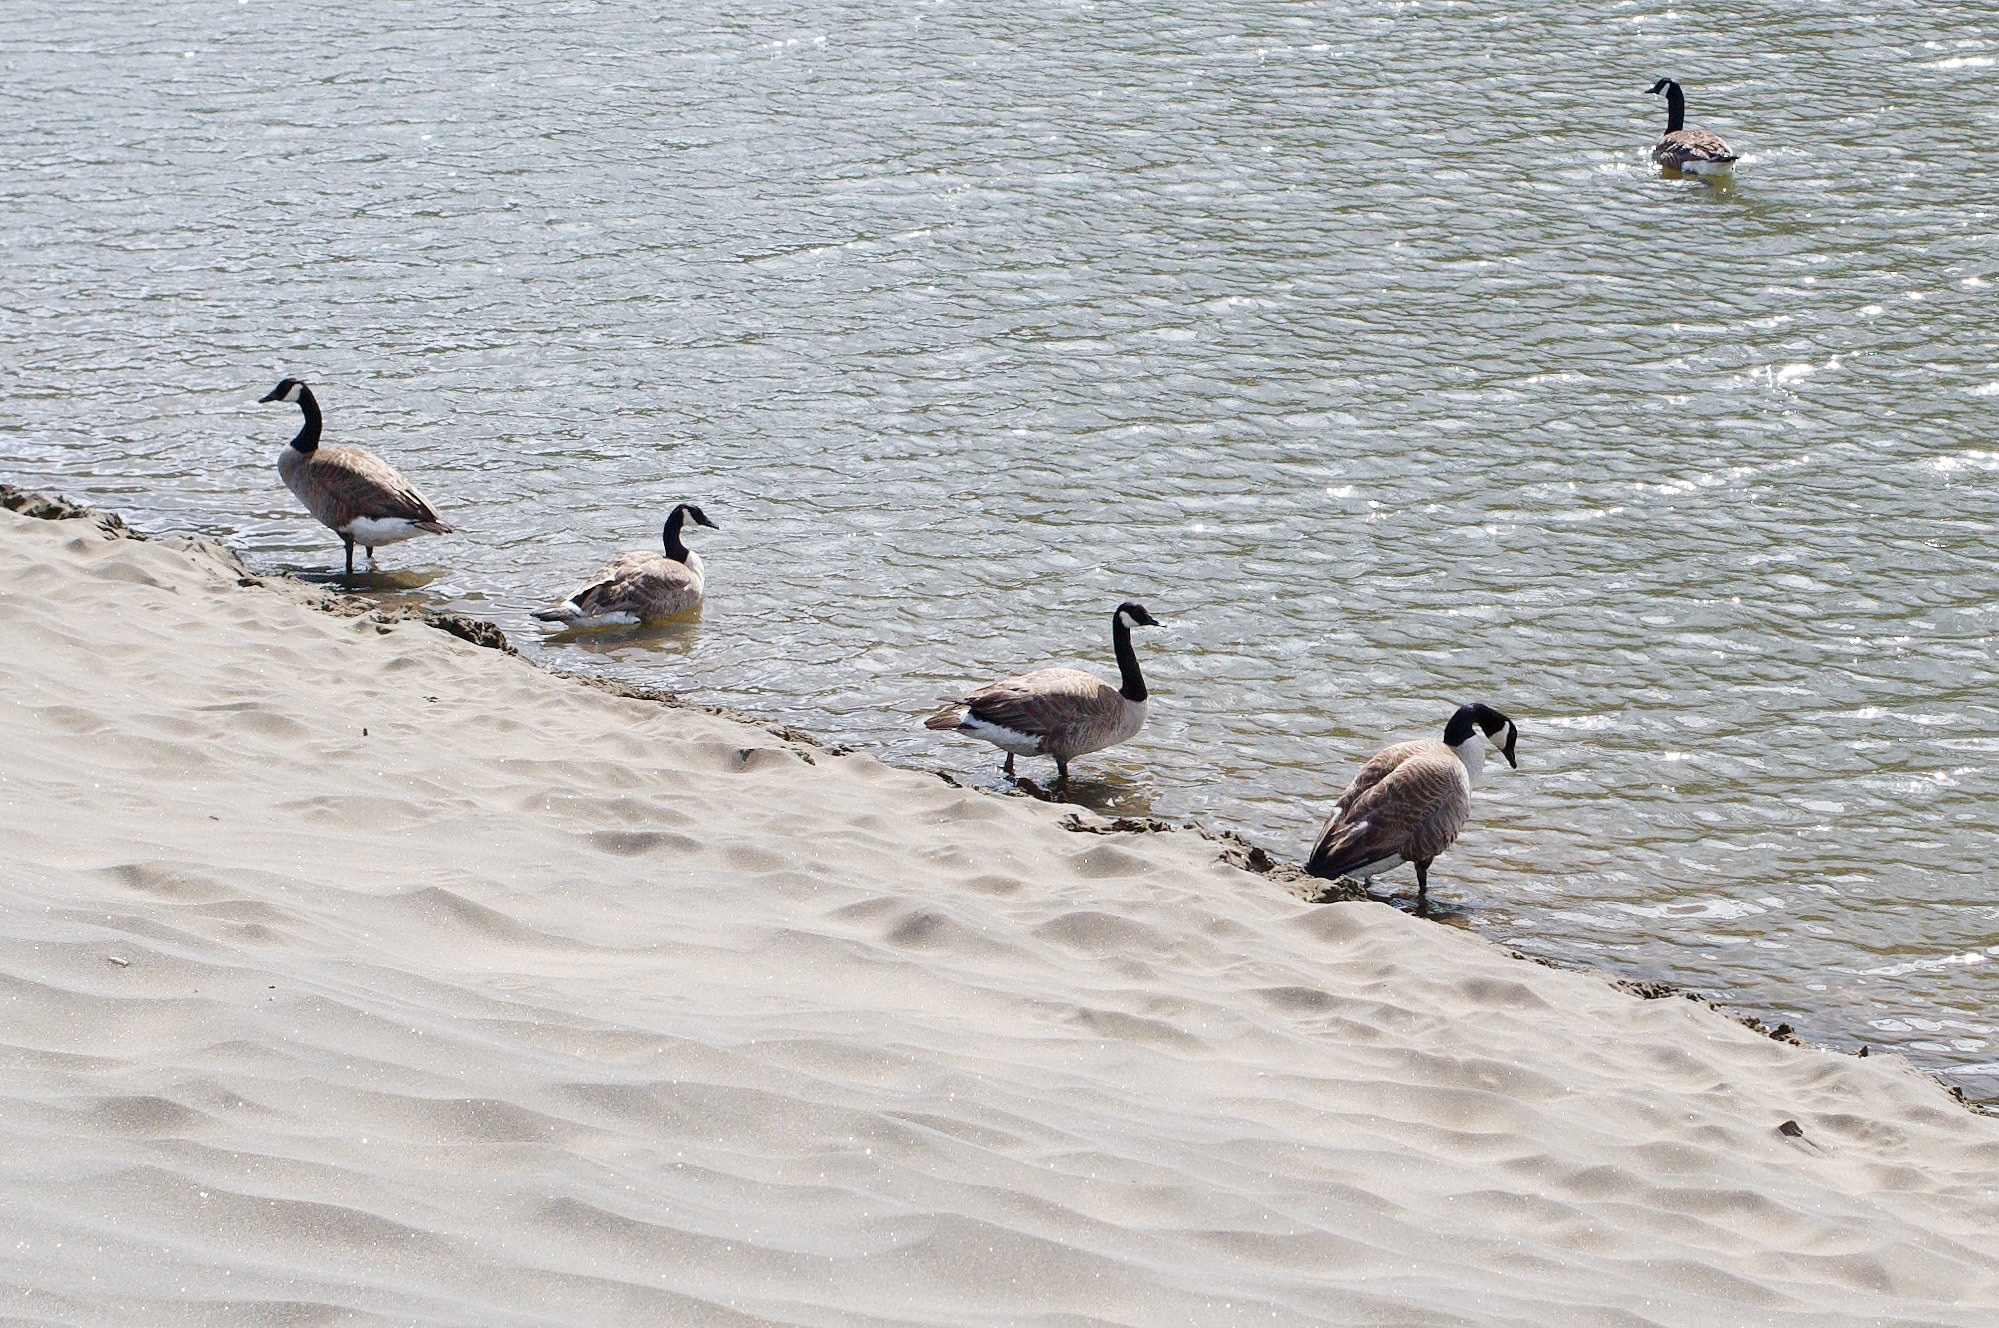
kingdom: Animalia
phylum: Chordata
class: Aves
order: Anseriformes
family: Anatidae
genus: Branta
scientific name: Branta canadensis
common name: Canada goose
